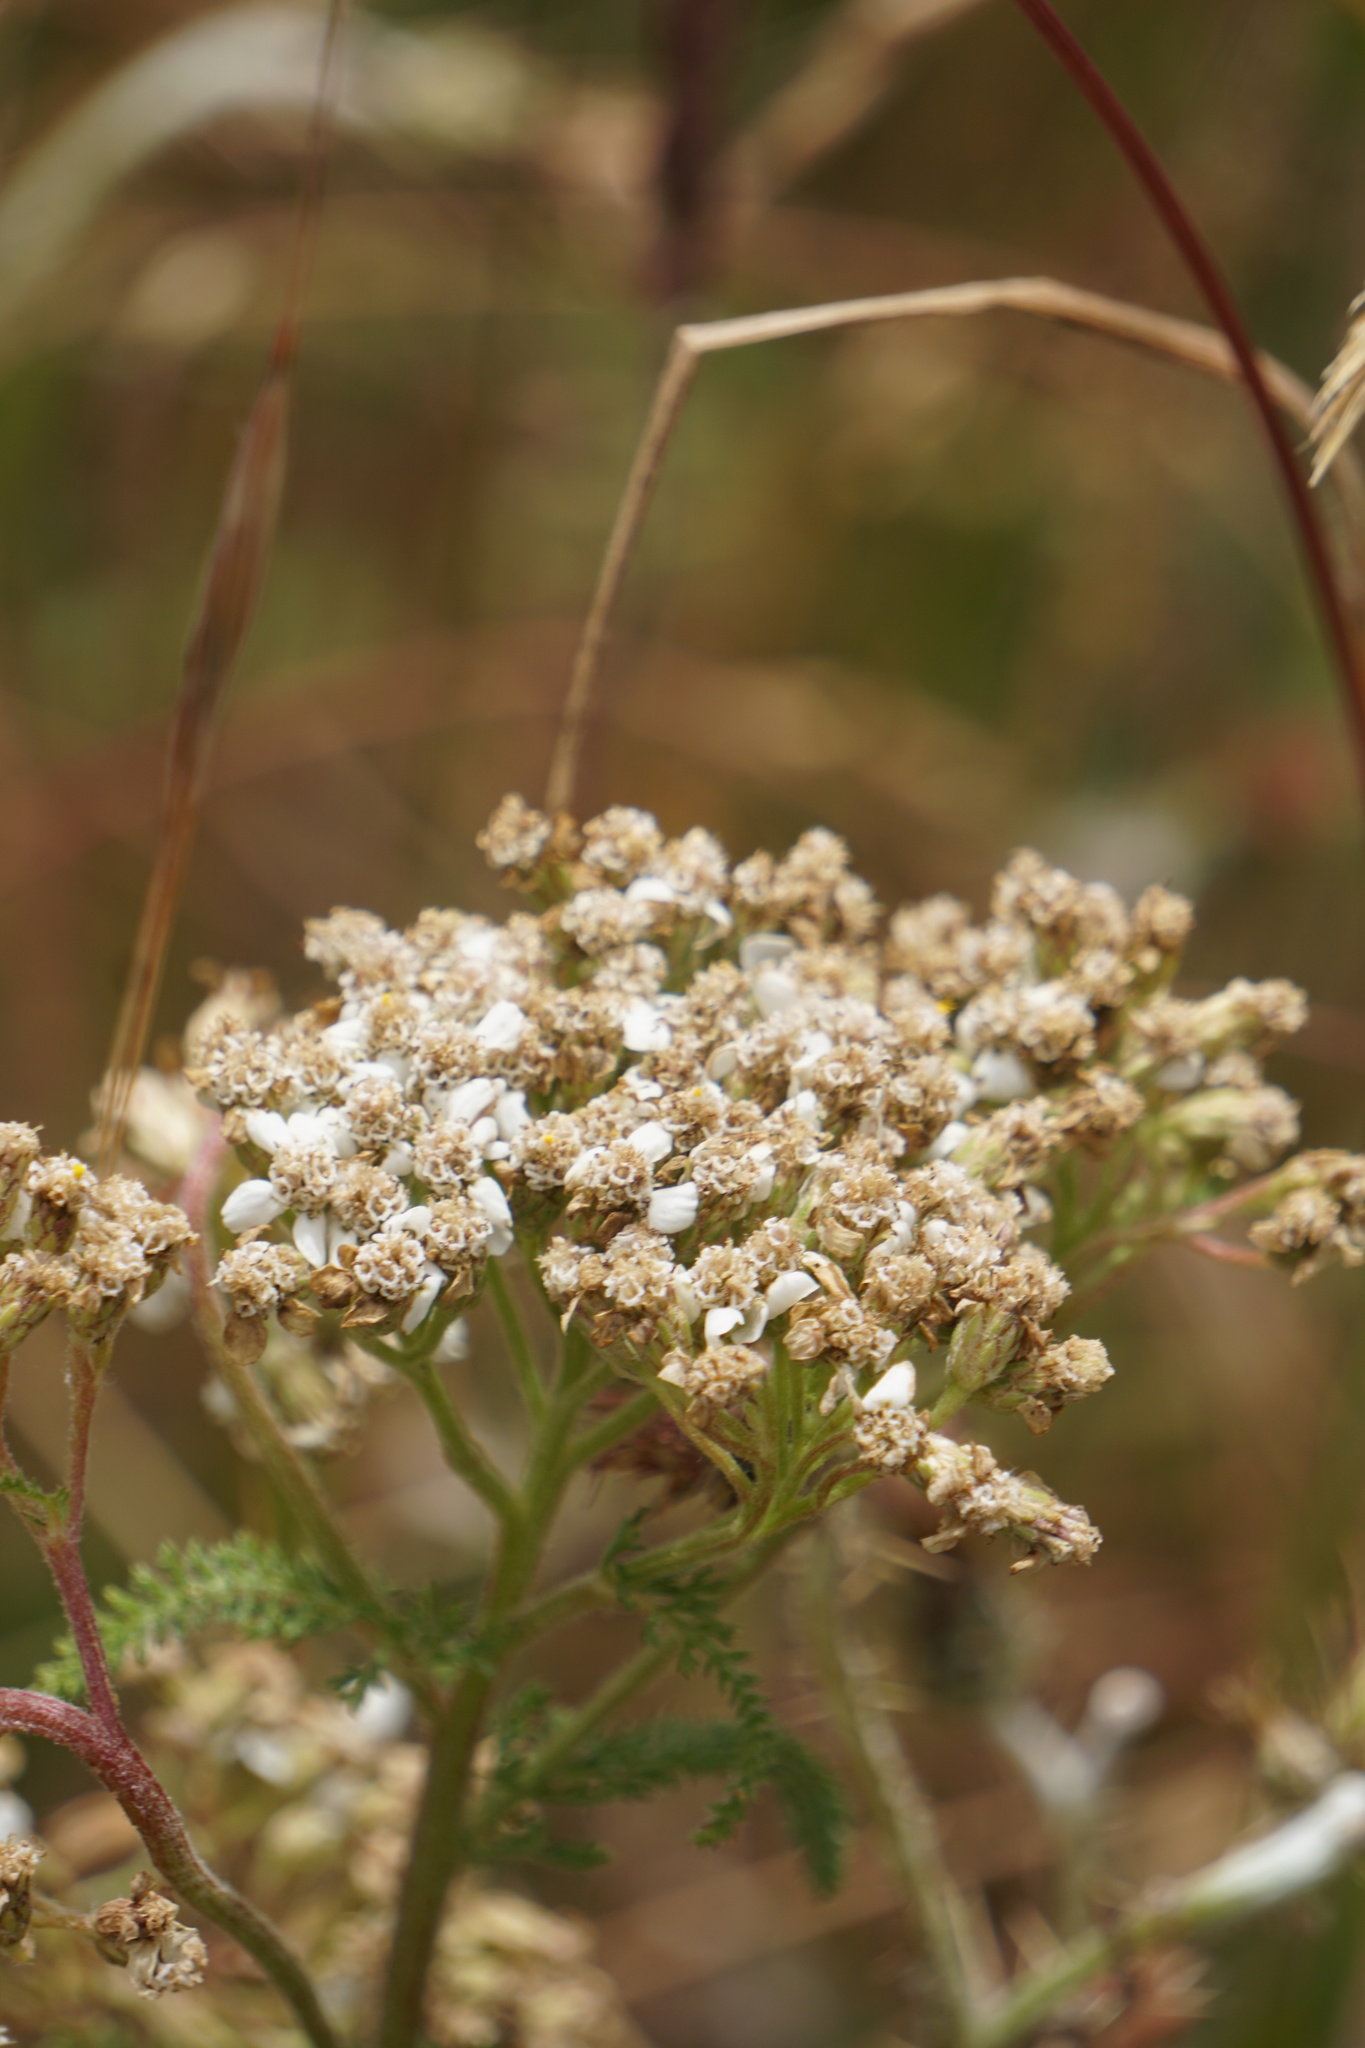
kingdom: Plantae
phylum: Tracheophyta
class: Magnoliopsida
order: Asterales
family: Asteraceae
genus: Achillea
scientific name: Achillea millefolium
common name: Yarrow
